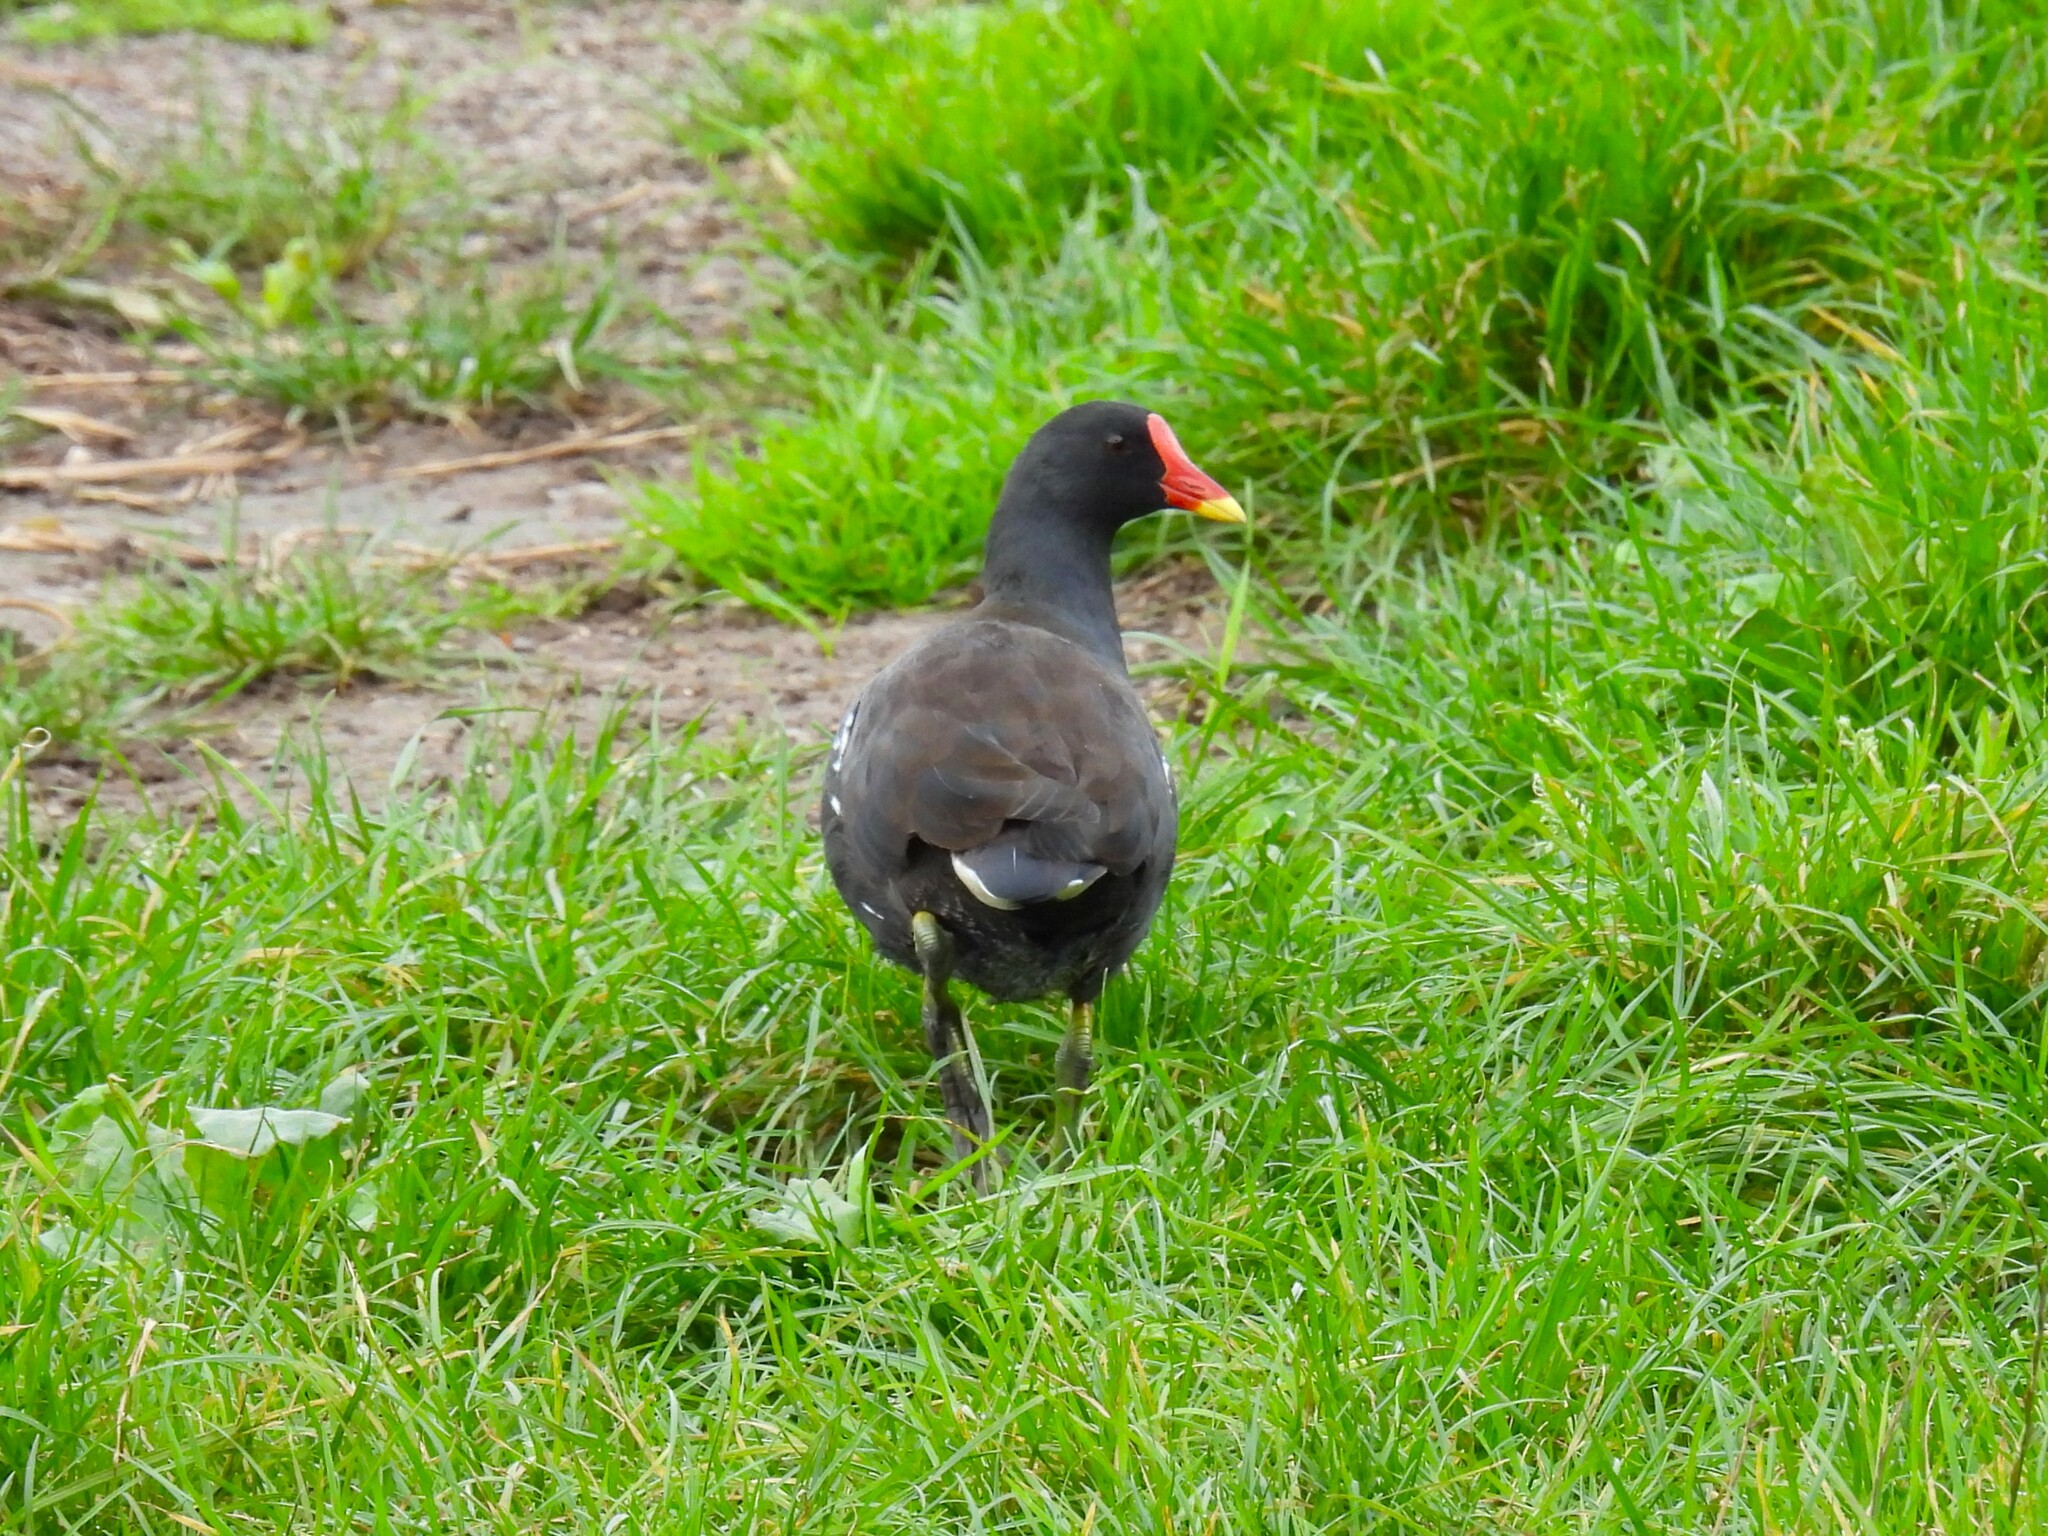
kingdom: Animalia
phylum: Chordata
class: Aves
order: Gruiformes
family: Rallidae
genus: Gallinula
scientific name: Gallinula chloropus
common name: Common moorhen
